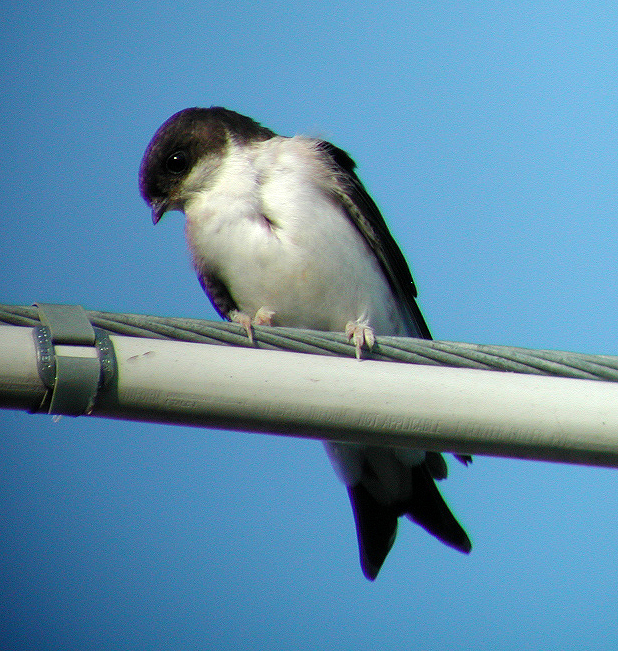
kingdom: Animalia
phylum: Chordata
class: Aves
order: Passeriformes
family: Hirundinidae
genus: Delichon
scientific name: Delichon urbicum
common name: Common house martin
